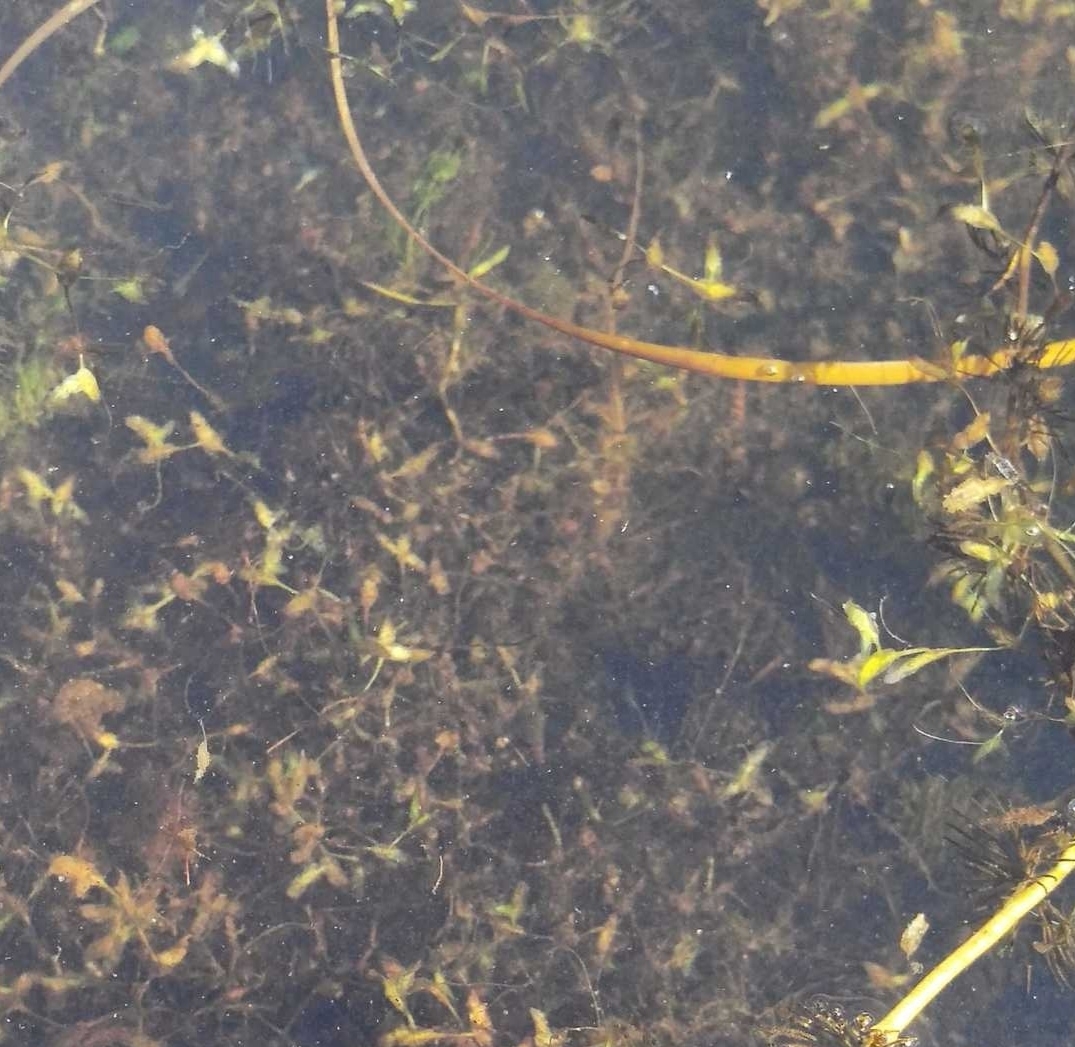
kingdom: Plantae
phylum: Tracheophyta
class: Liliopsida
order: Alismatales
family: Araceae
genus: Lemna
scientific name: Lemna trisulca
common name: Ivy-leaved duckweed
